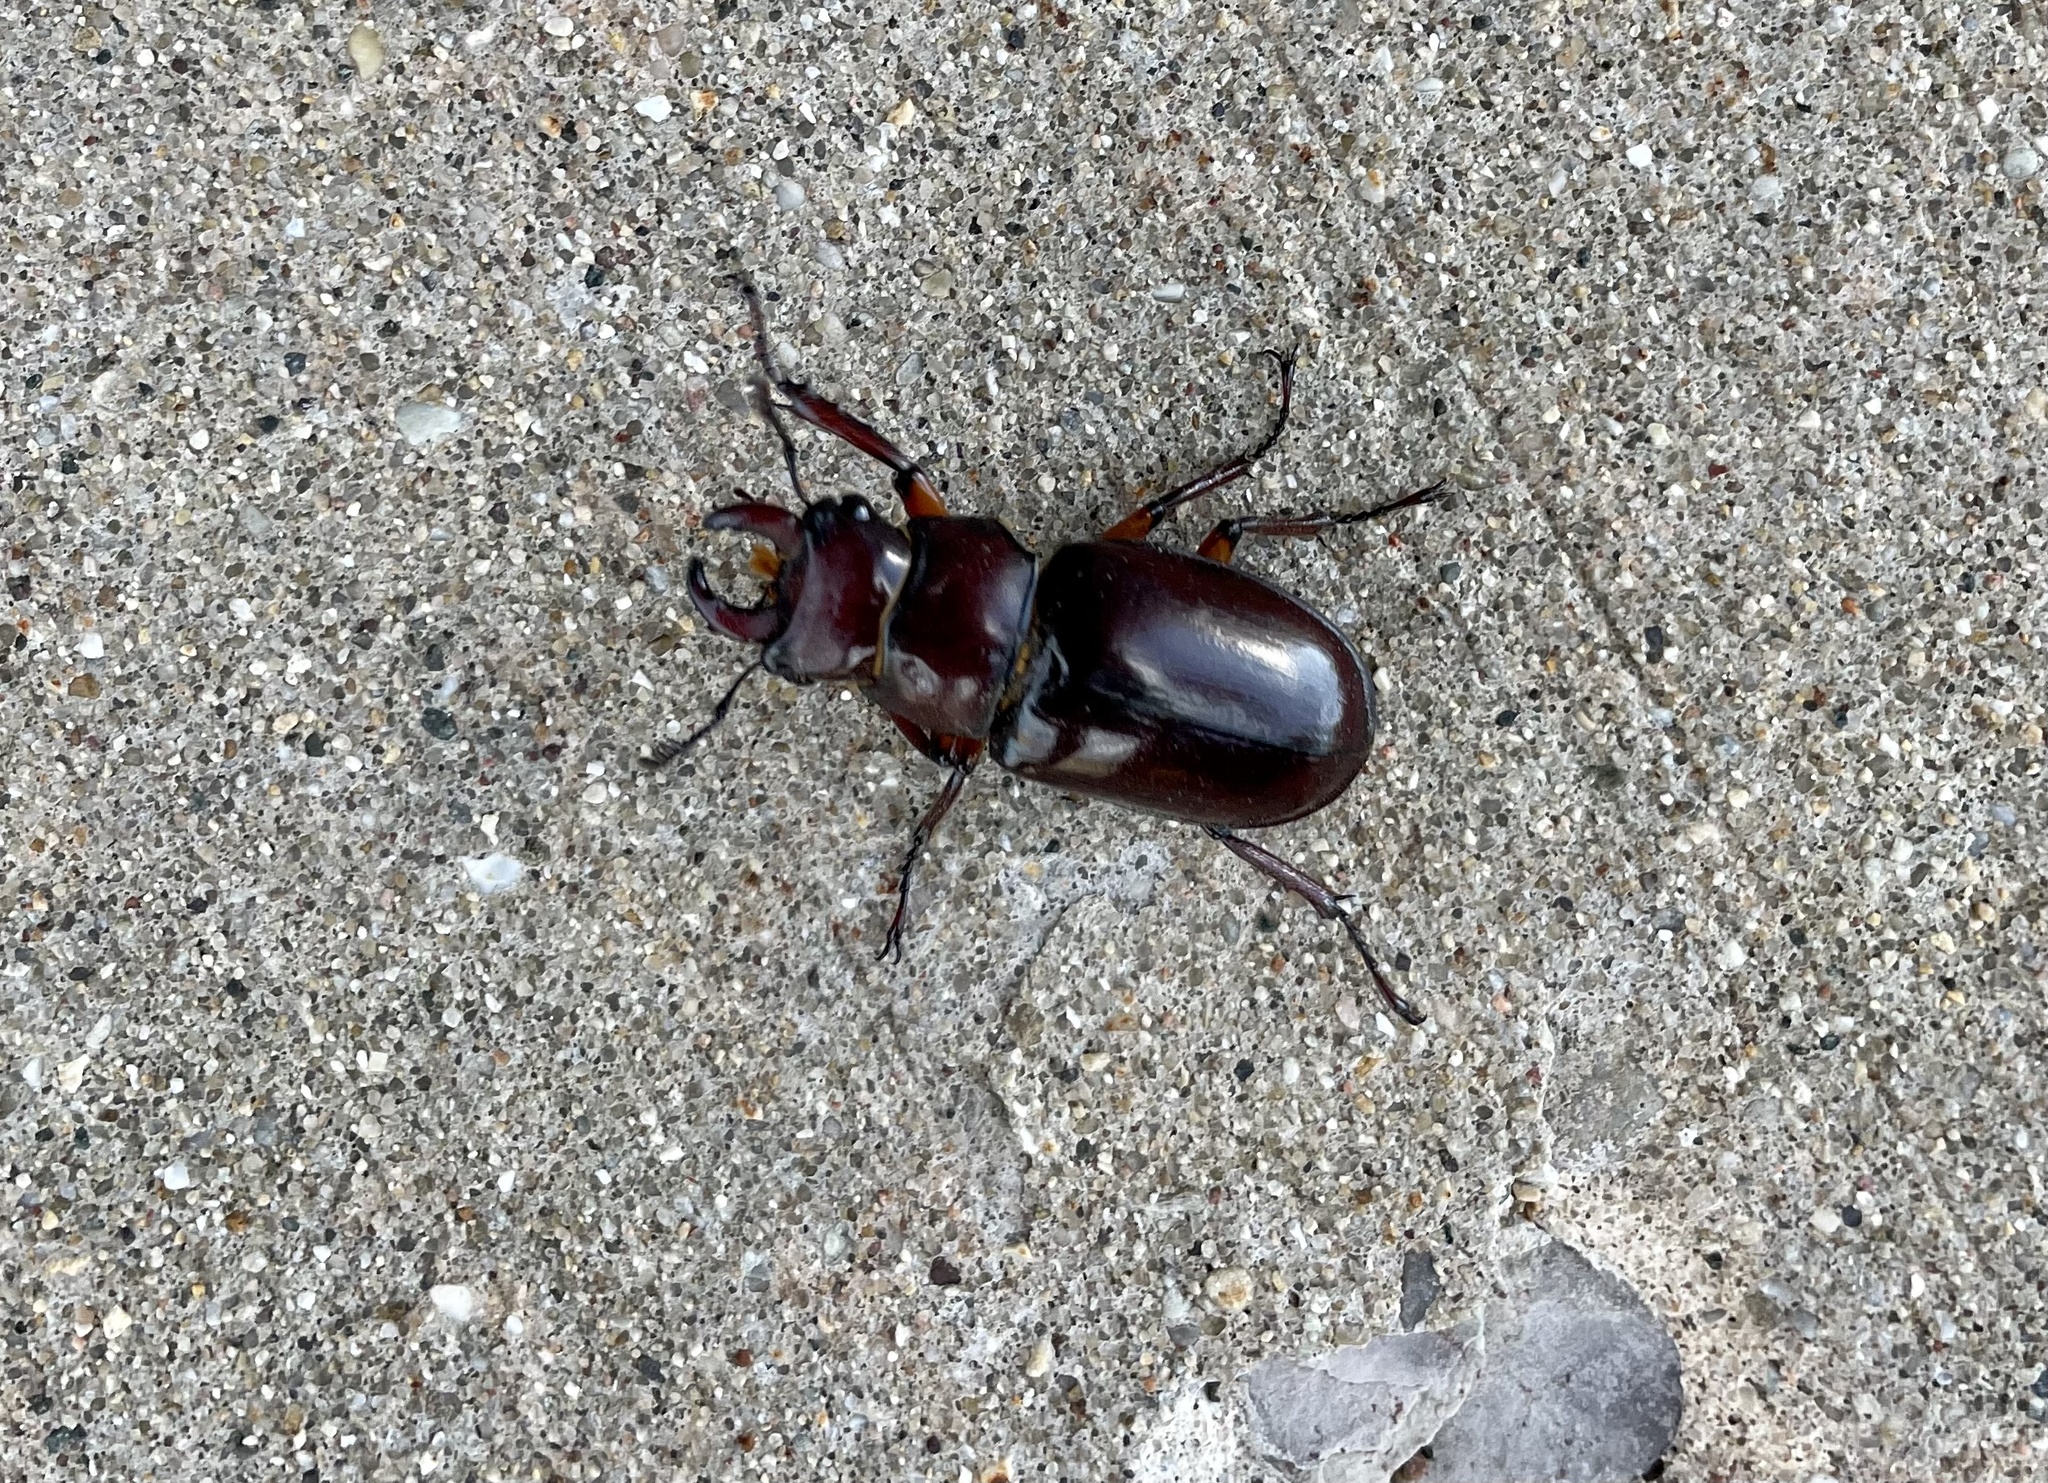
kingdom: Animalia
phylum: Arthropoda
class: Insecta
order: Coleoptera
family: Lucanidae
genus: Lucanus
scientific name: Lucanus capreolus
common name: Stag beetle
